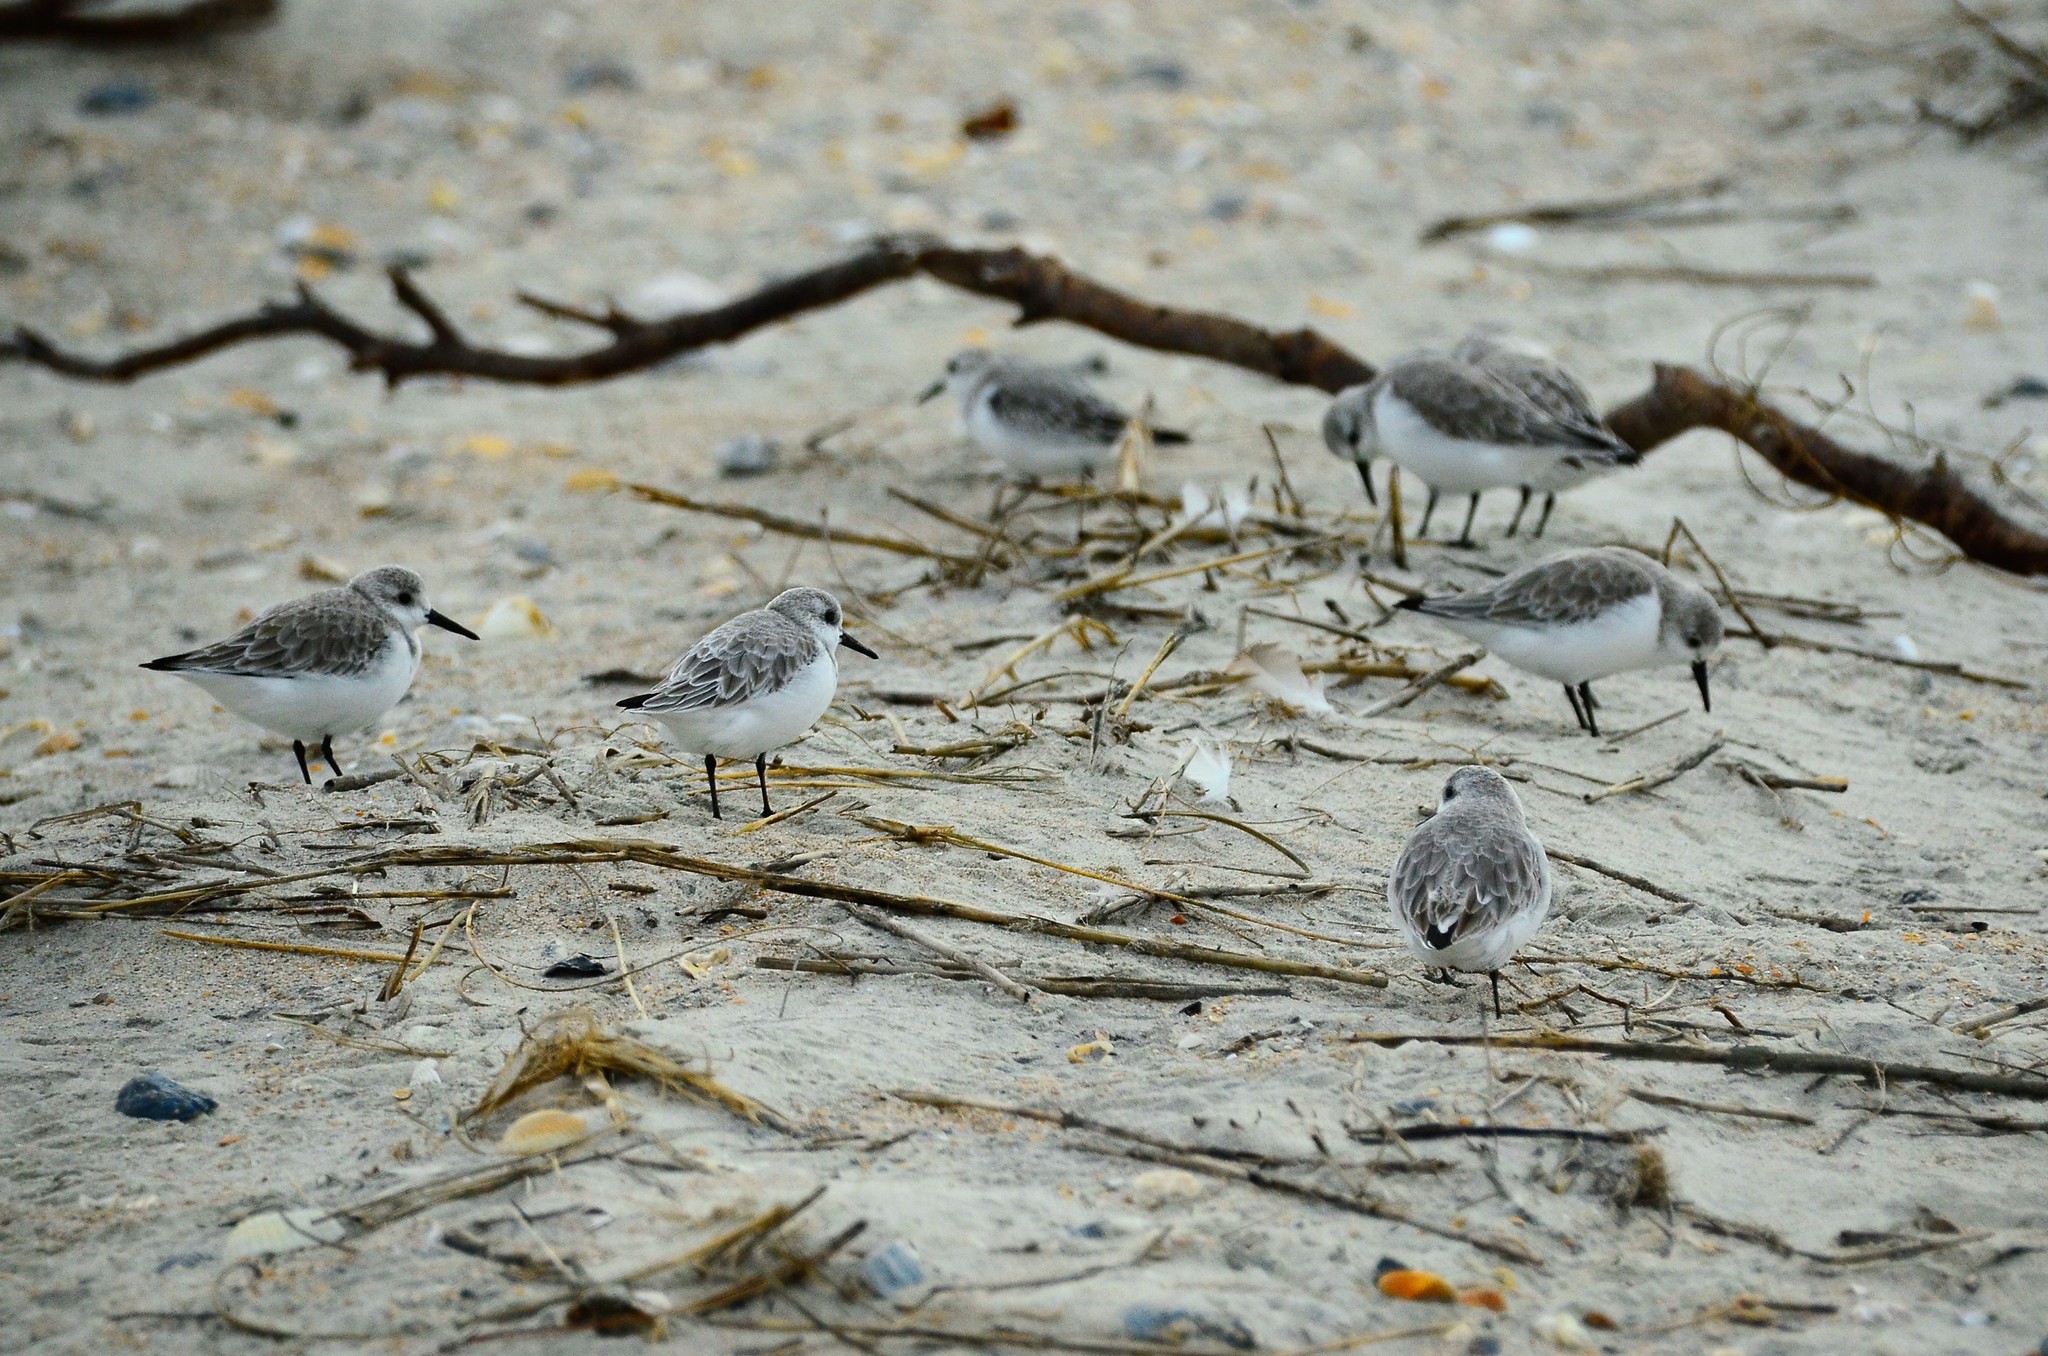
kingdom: Animalia
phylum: Chordata
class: Aves
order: Charadriiformes
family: Scolopacidae
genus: Calidris
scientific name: Calidris alba
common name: Sanderling
